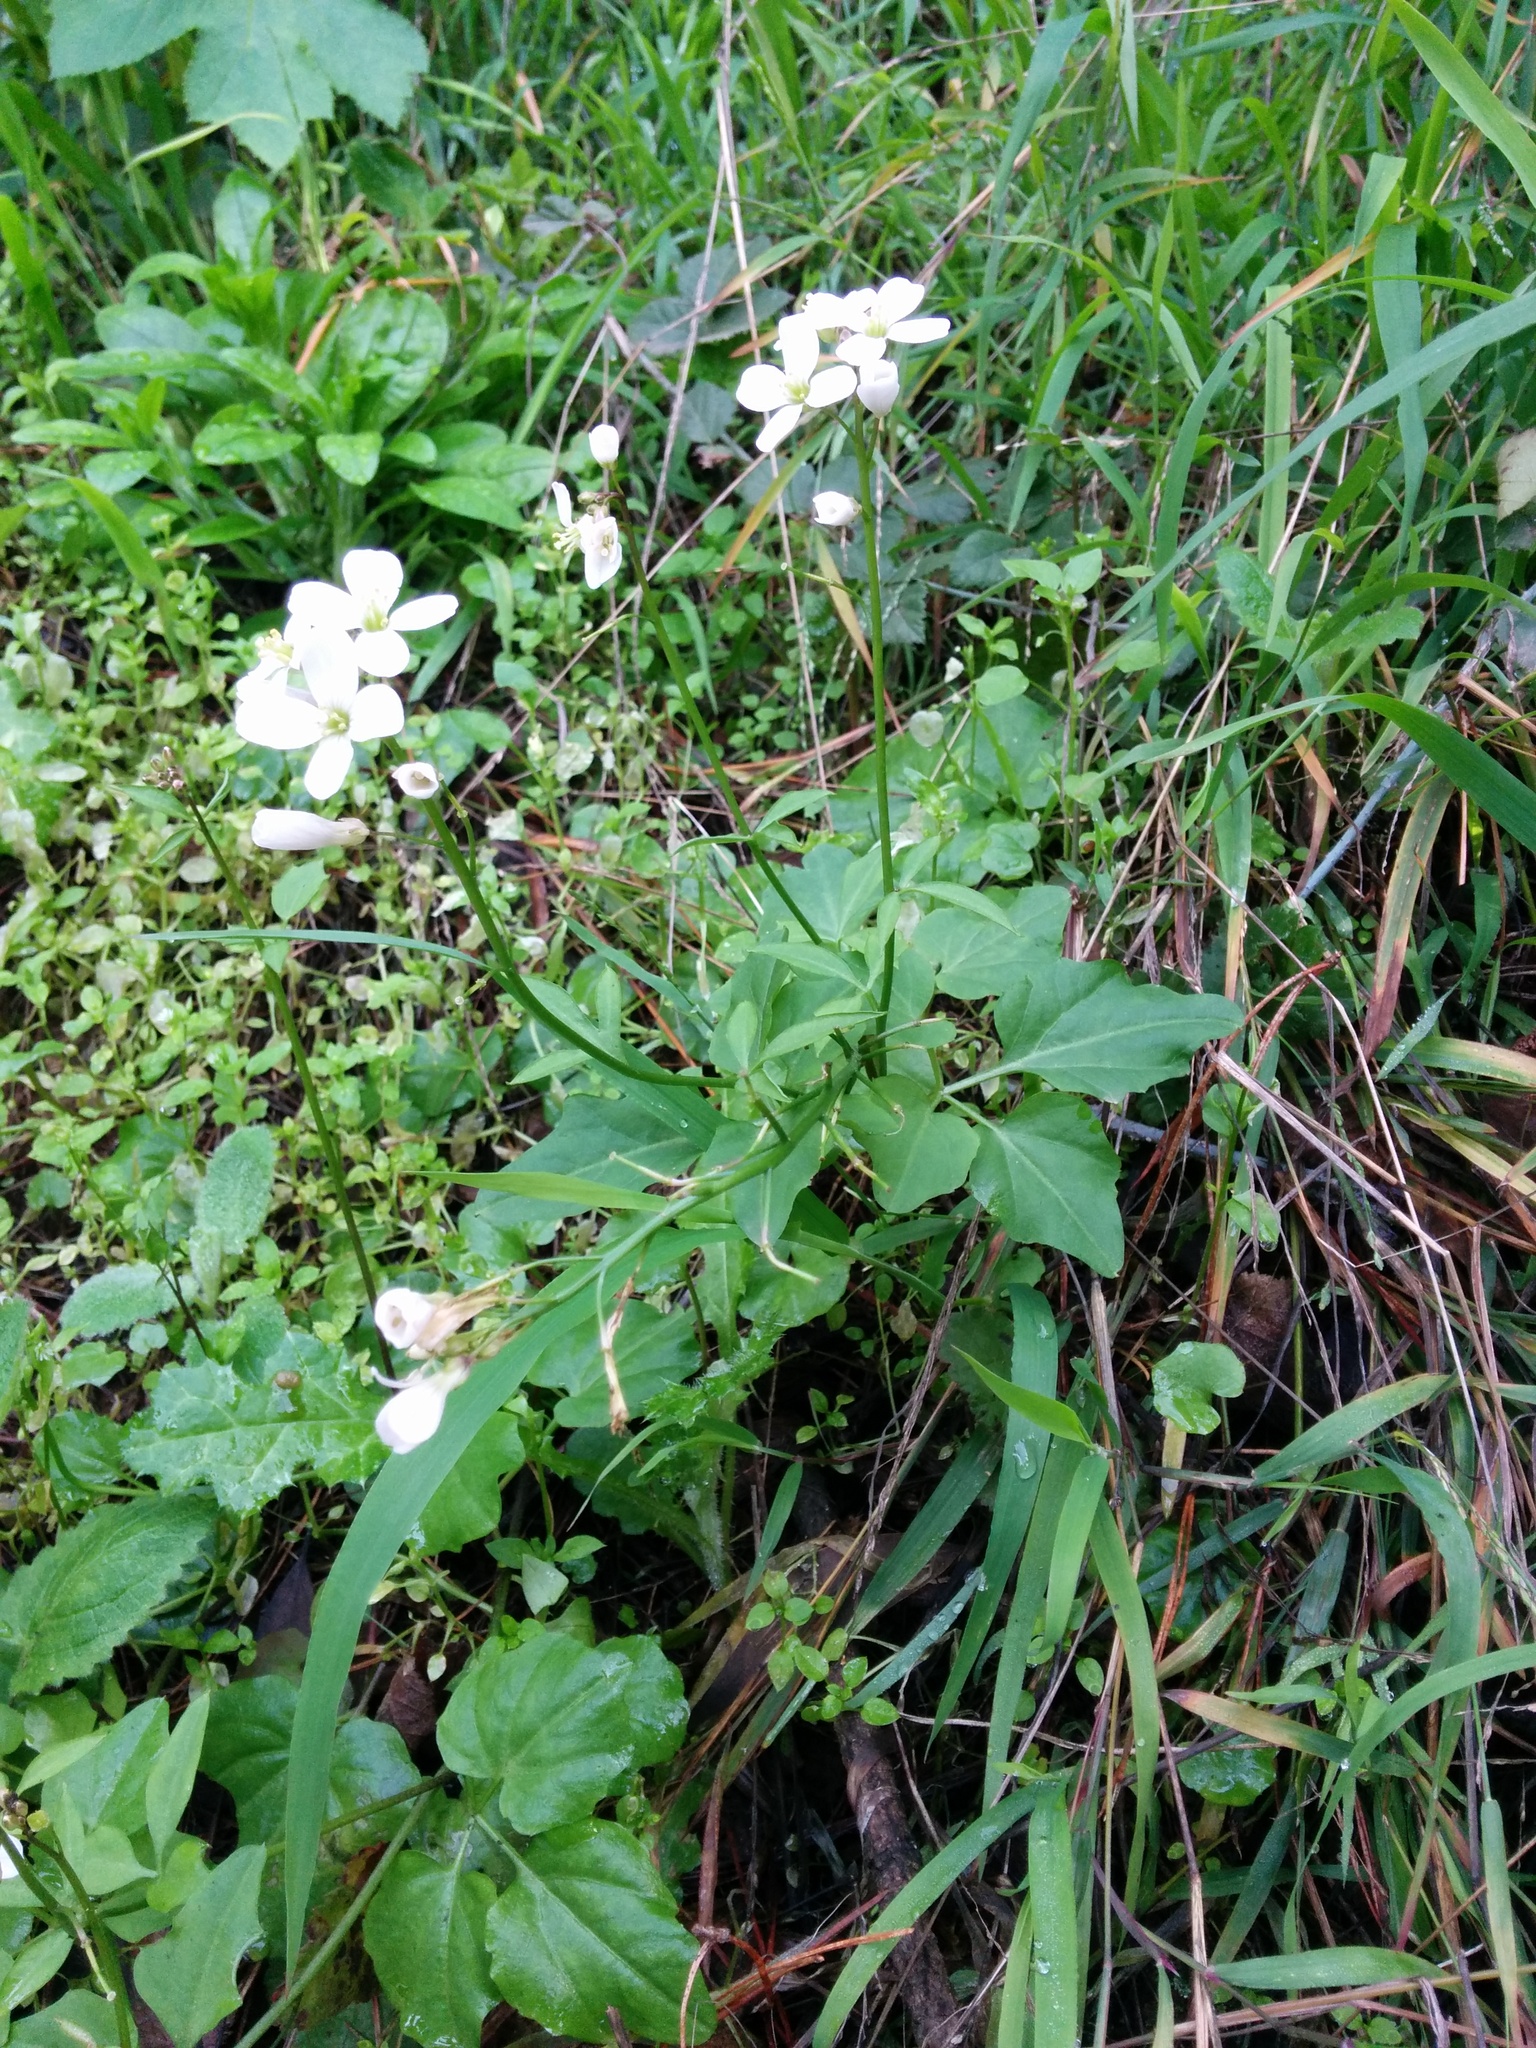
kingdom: Plantae
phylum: Tracheophyta
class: Magnoliopsida
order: Brassicales
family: Brassicaceae
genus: Cardamine
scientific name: Cardamine californica
